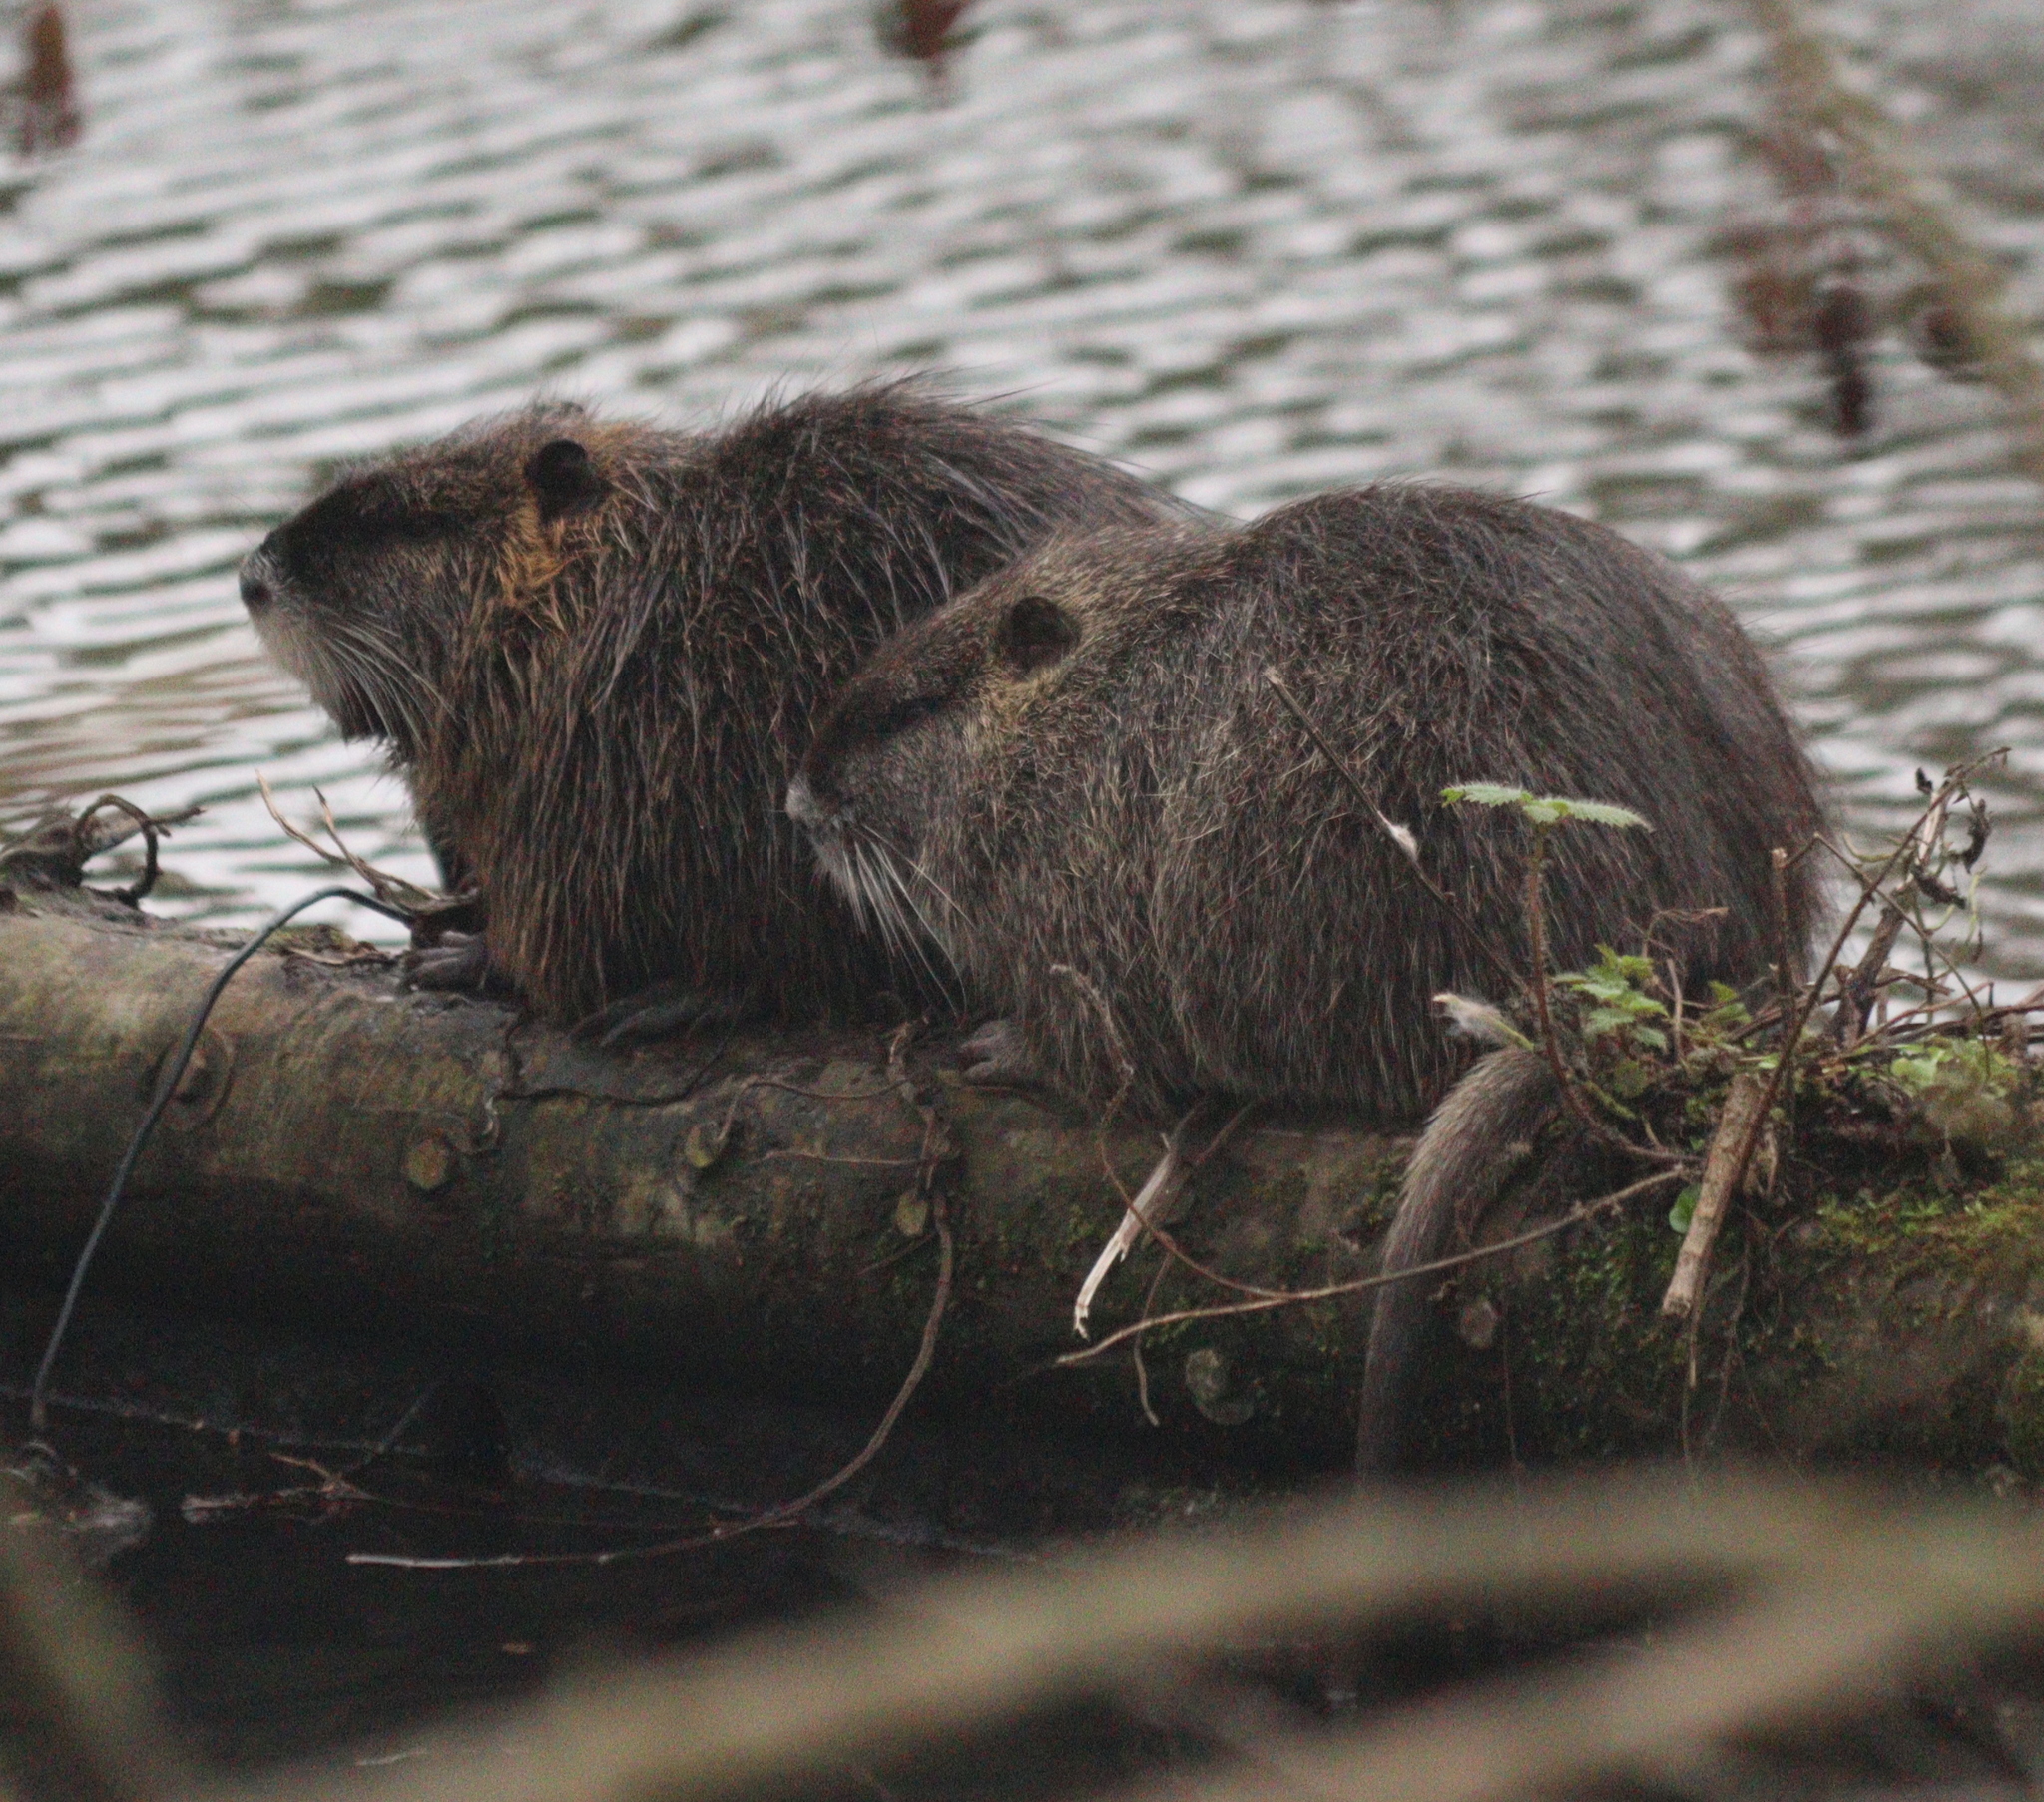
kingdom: Animalia
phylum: Chordata
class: Mammalia
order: Rodentia
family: Myocastoridae
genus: Myocastor
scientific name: Myocastor coypus
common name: Coypu
